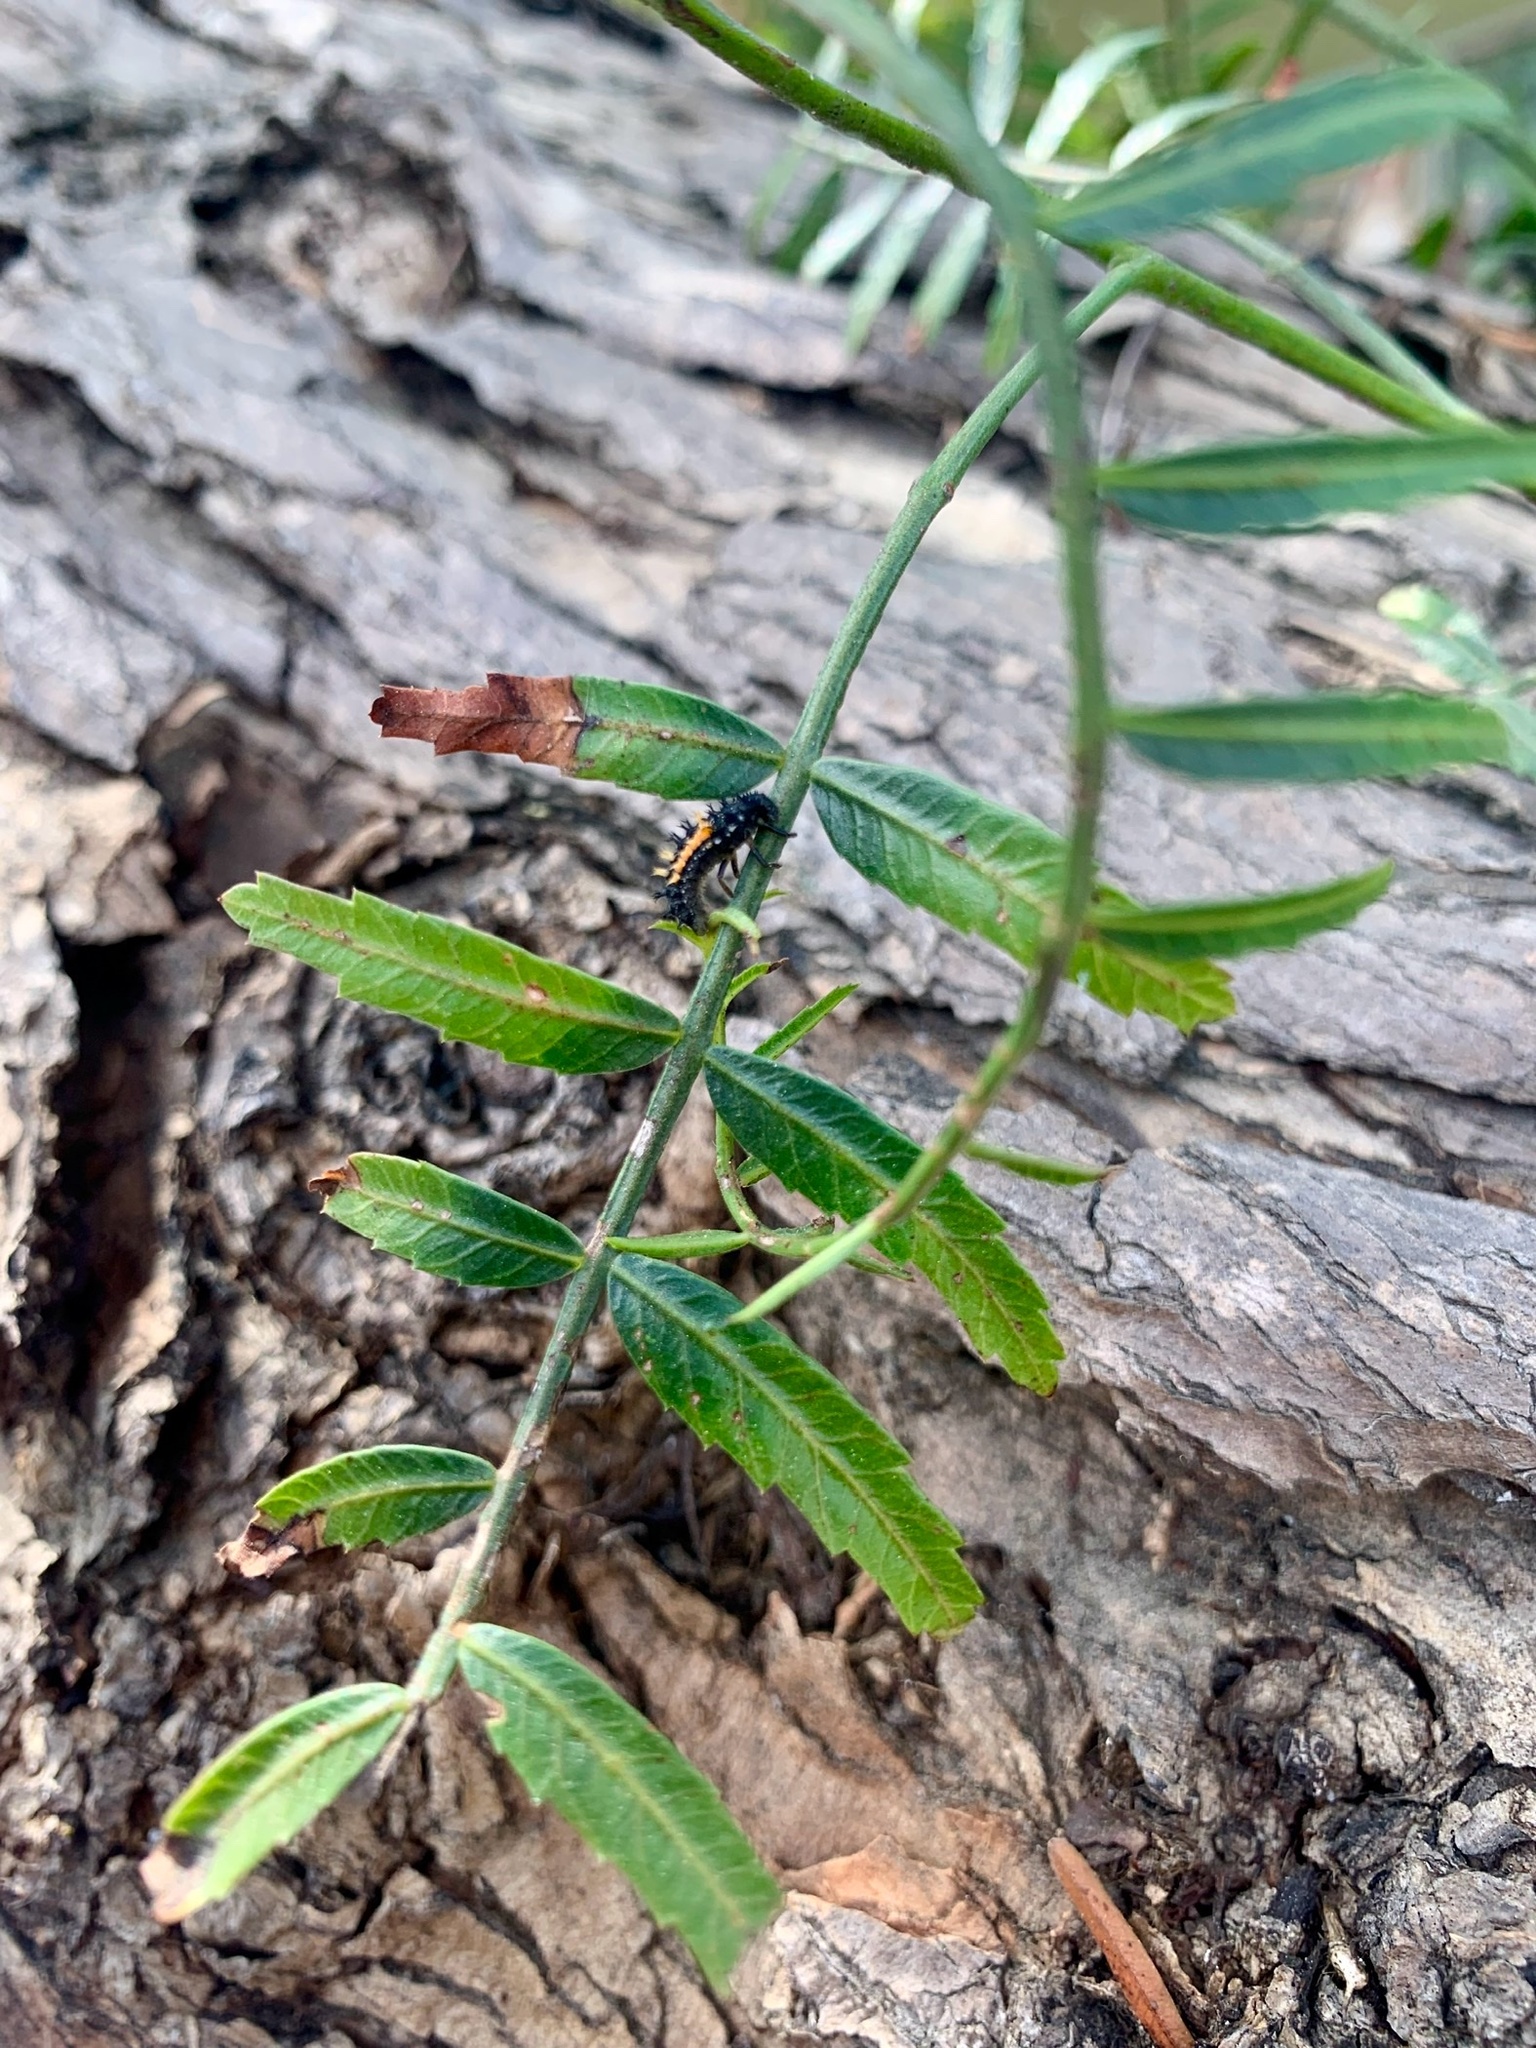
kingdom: Animalia
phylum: Arthropoda
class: Insecta
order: Coleoptera
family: Coccinellidae
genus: Harmonia
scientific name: Harmonia axyridis
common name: Harlequin ladybird
